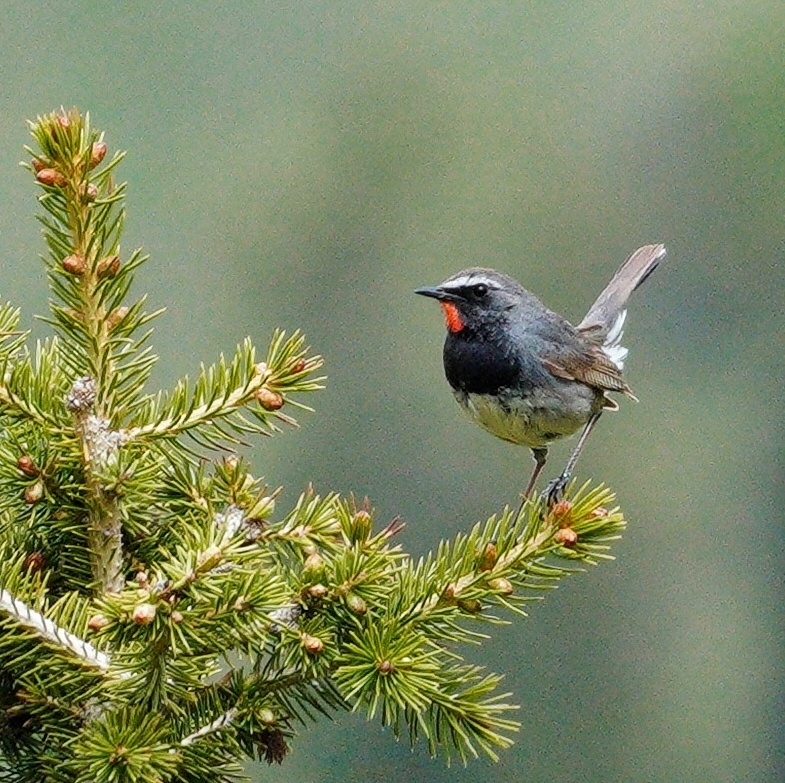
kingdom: Animalia
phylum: Chordata
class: Aves
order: Passeriformes
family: Muscicapidae
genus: Luscinia
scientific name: Luscinia pectoralis
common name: White-tailed rubythroat
